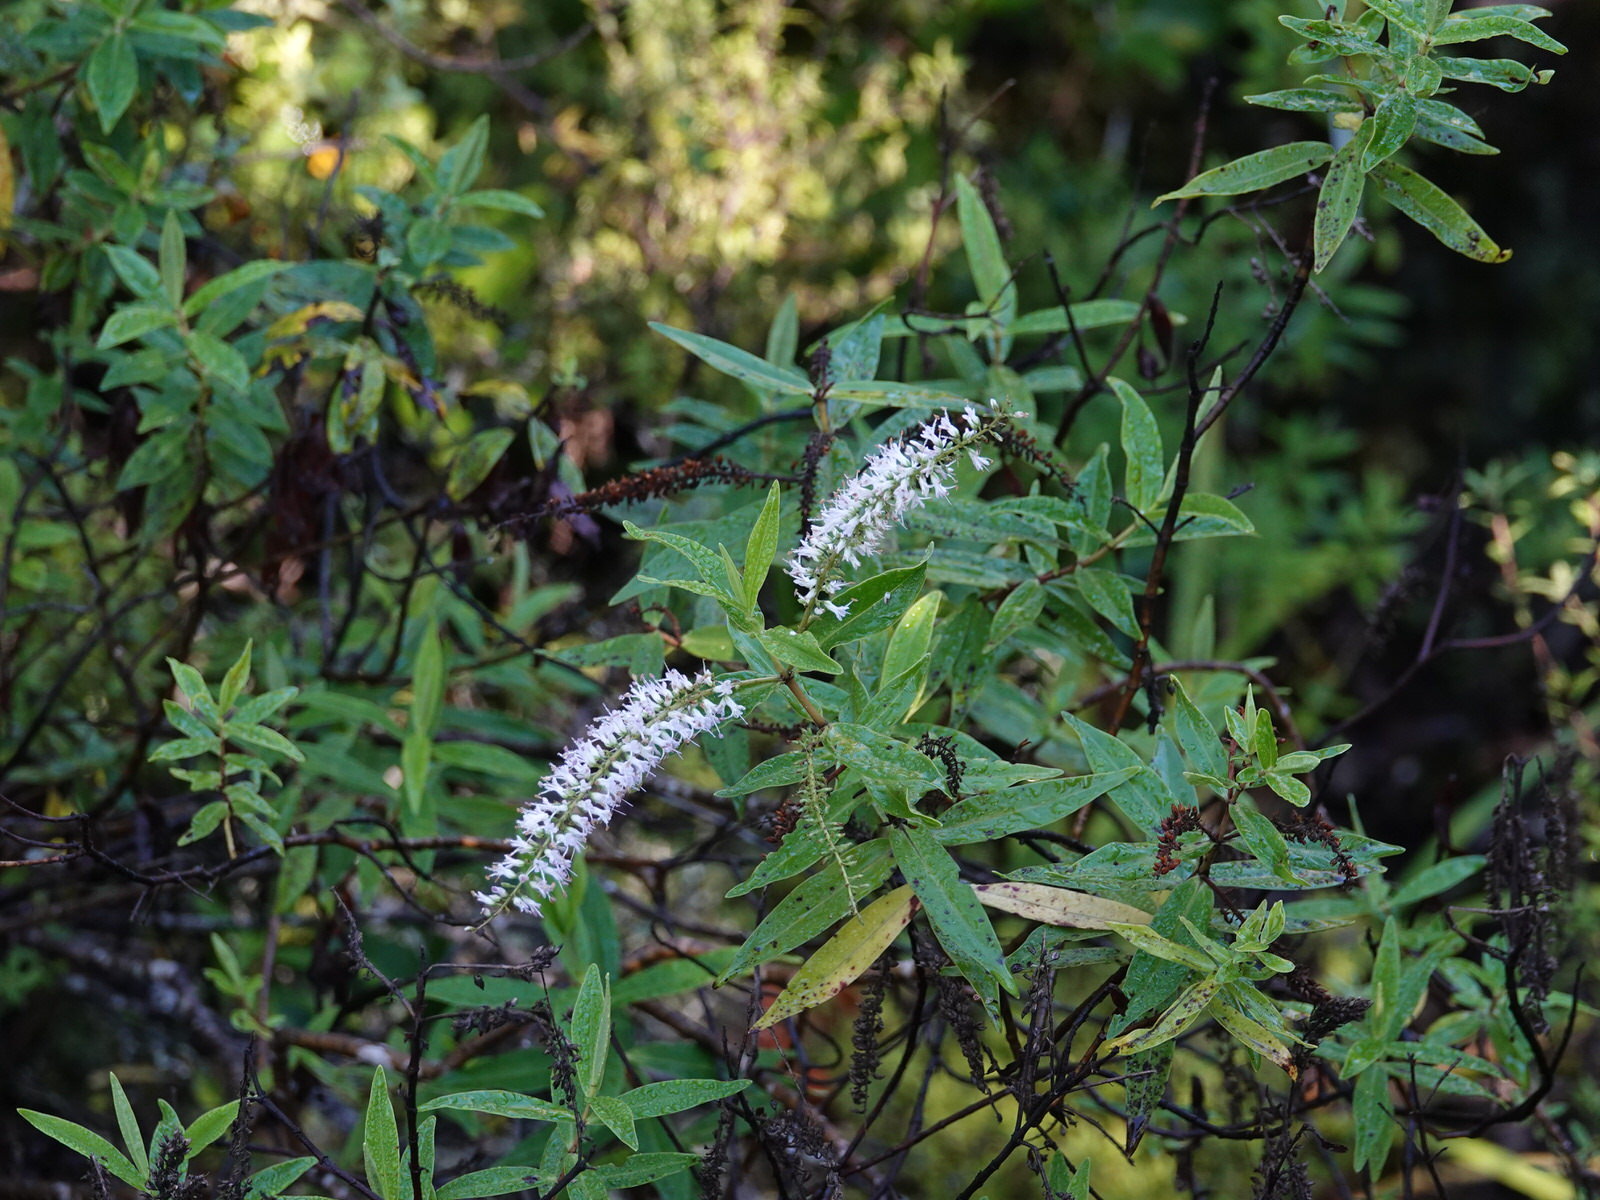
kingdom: Plantae
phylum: Tracheophyta
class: Magnoliopsida
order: Lamiales
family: Plantaginaceae
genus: Veronica
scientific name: Veronica stricta
